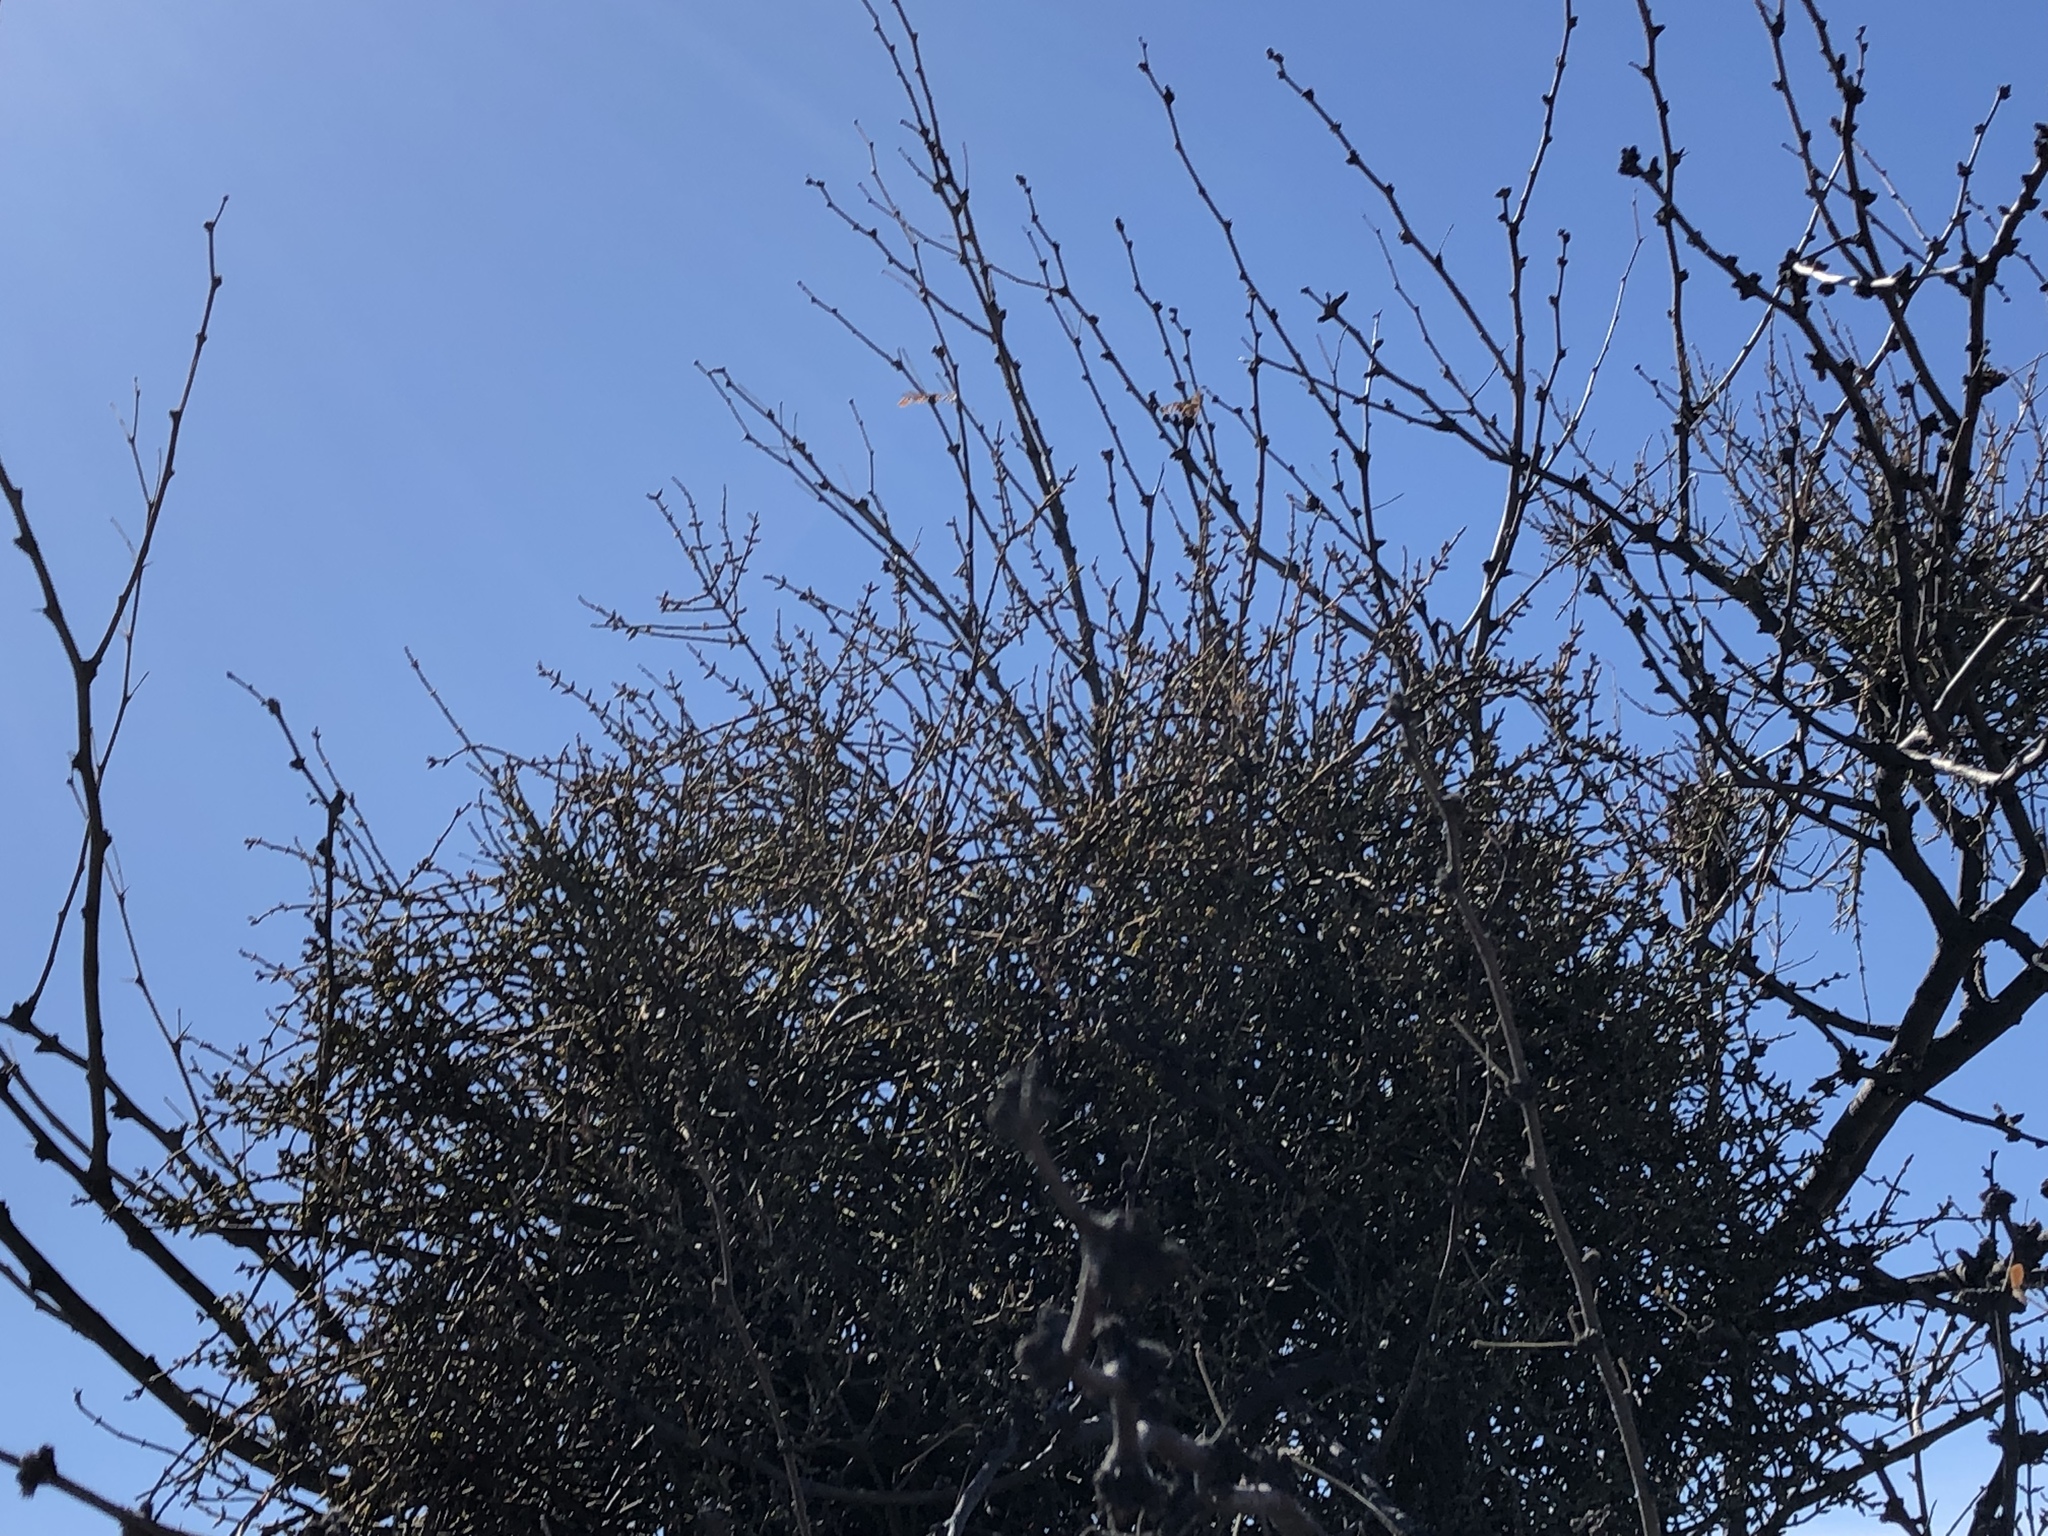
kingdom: Plantae
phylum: Tracheophyta
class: Magnoliopsida
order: Santalales
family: Viscaceae
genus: Phoradendron
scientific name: Phoradendron californicum
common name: Acacia mistletoe
